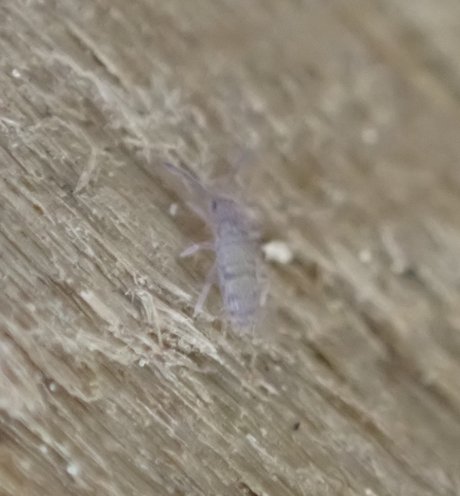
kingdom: Animalia
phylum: Arthropoda
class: Collembola
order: Entomobryomorpha
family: Entomobryidae
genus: Willowsia
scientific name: Willowsia nigromaculata
